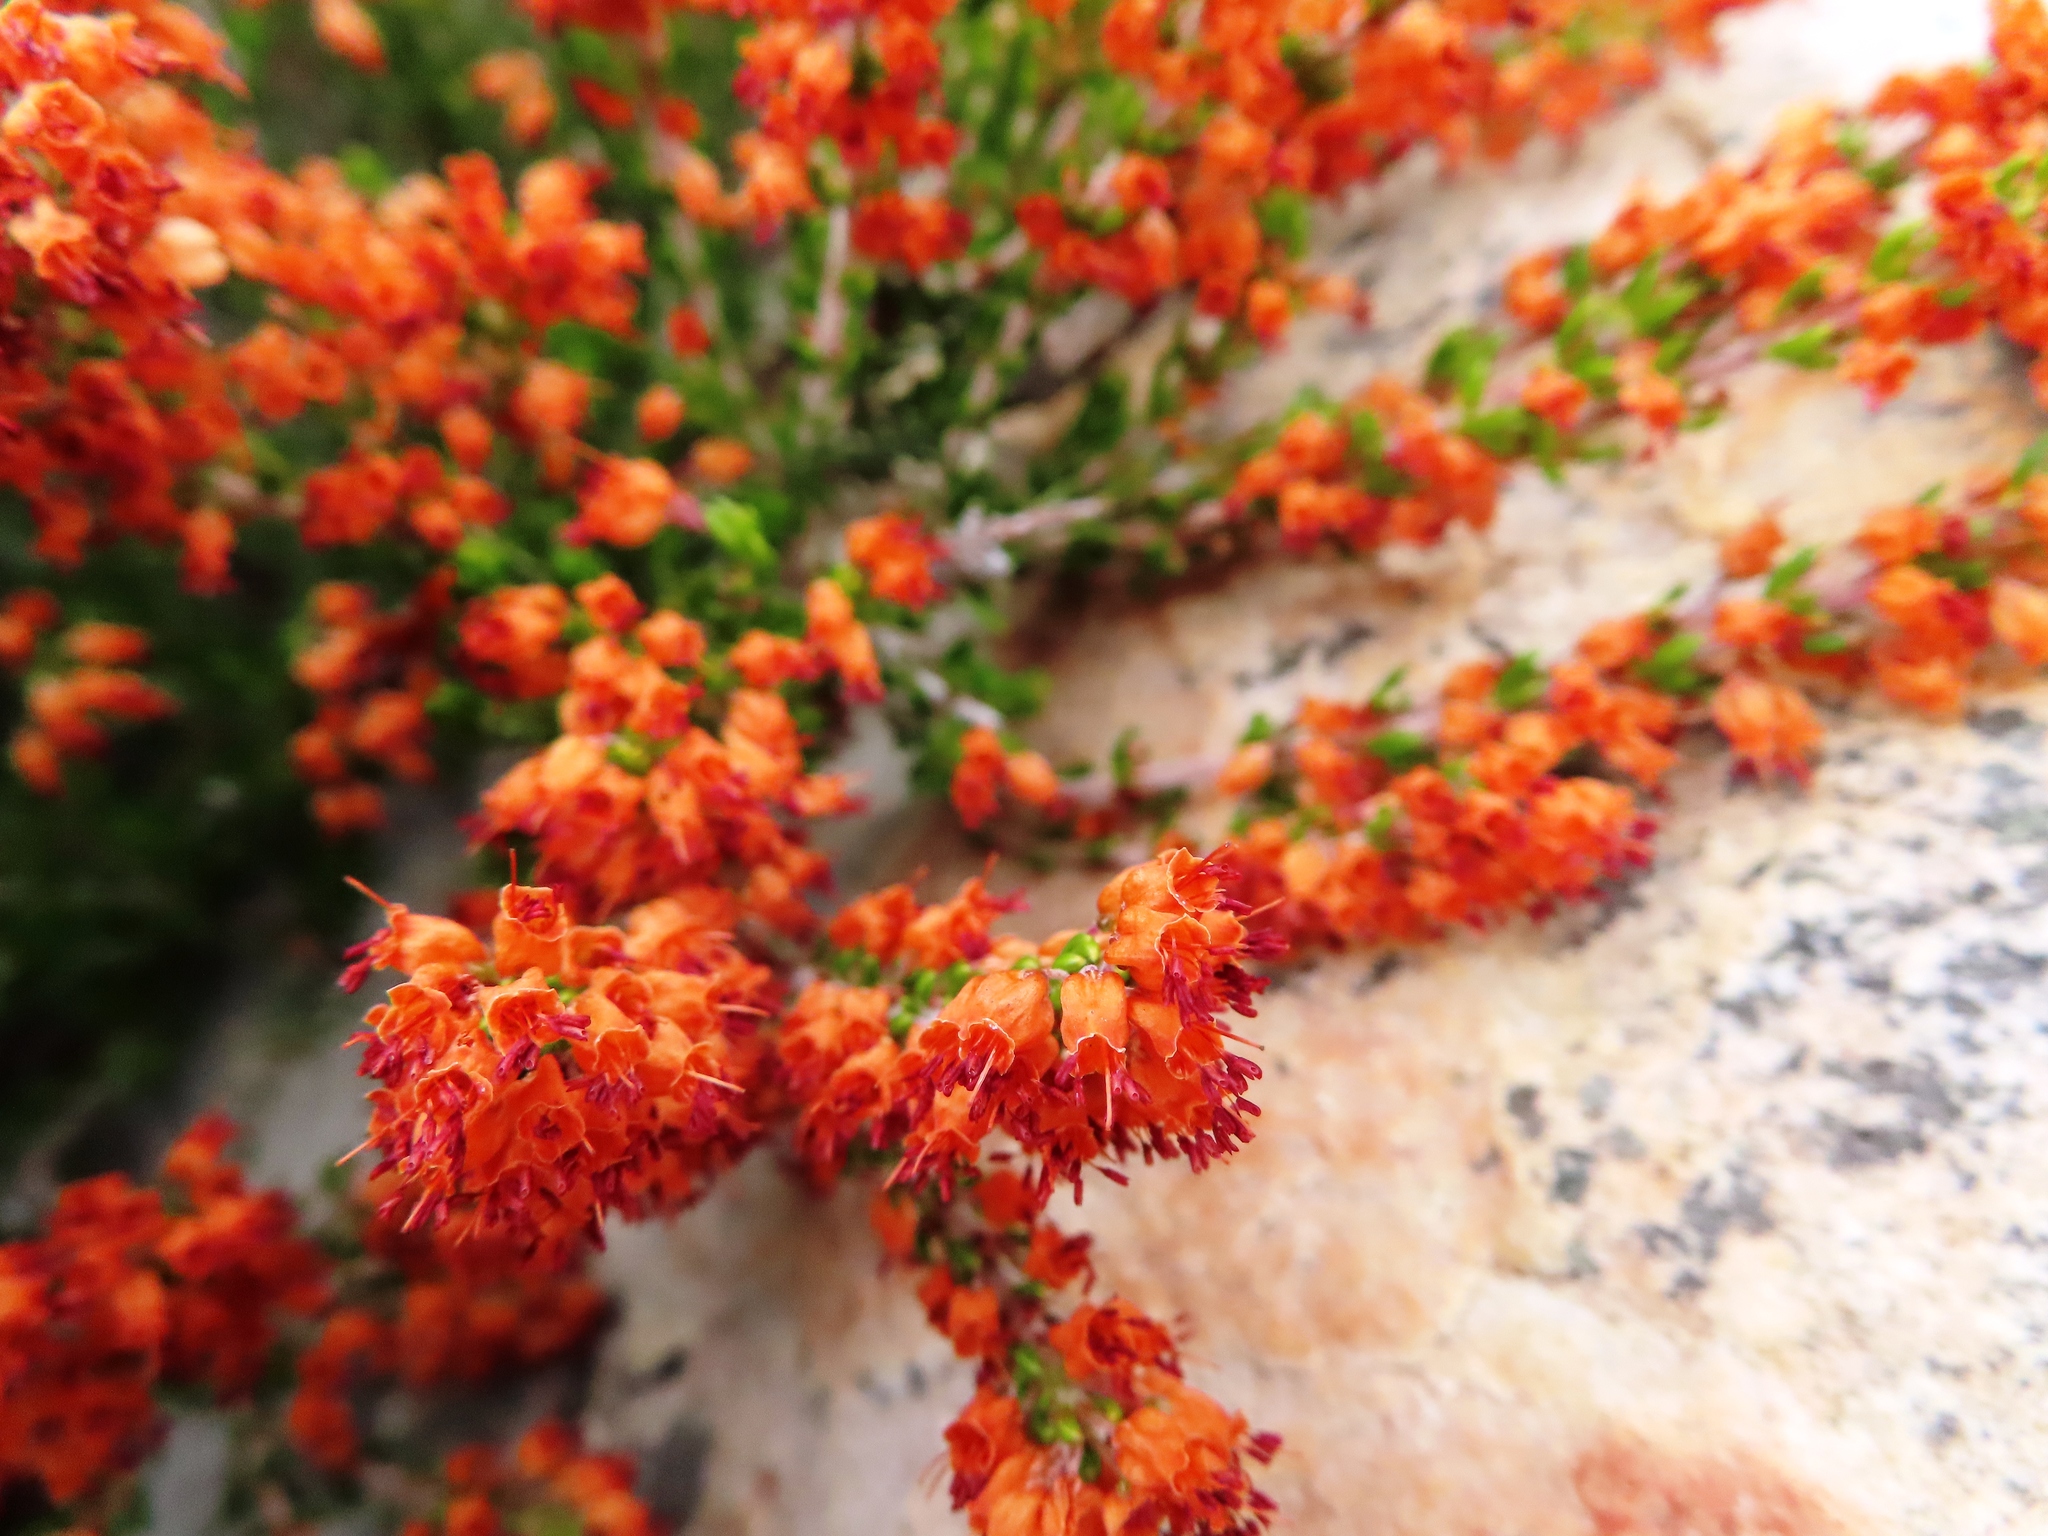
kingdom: Plantae
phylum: Tracheophyta
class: Magnoliopsida
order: Ericales
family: Ericaceae
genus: Erica
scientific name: Erica nudiflora
